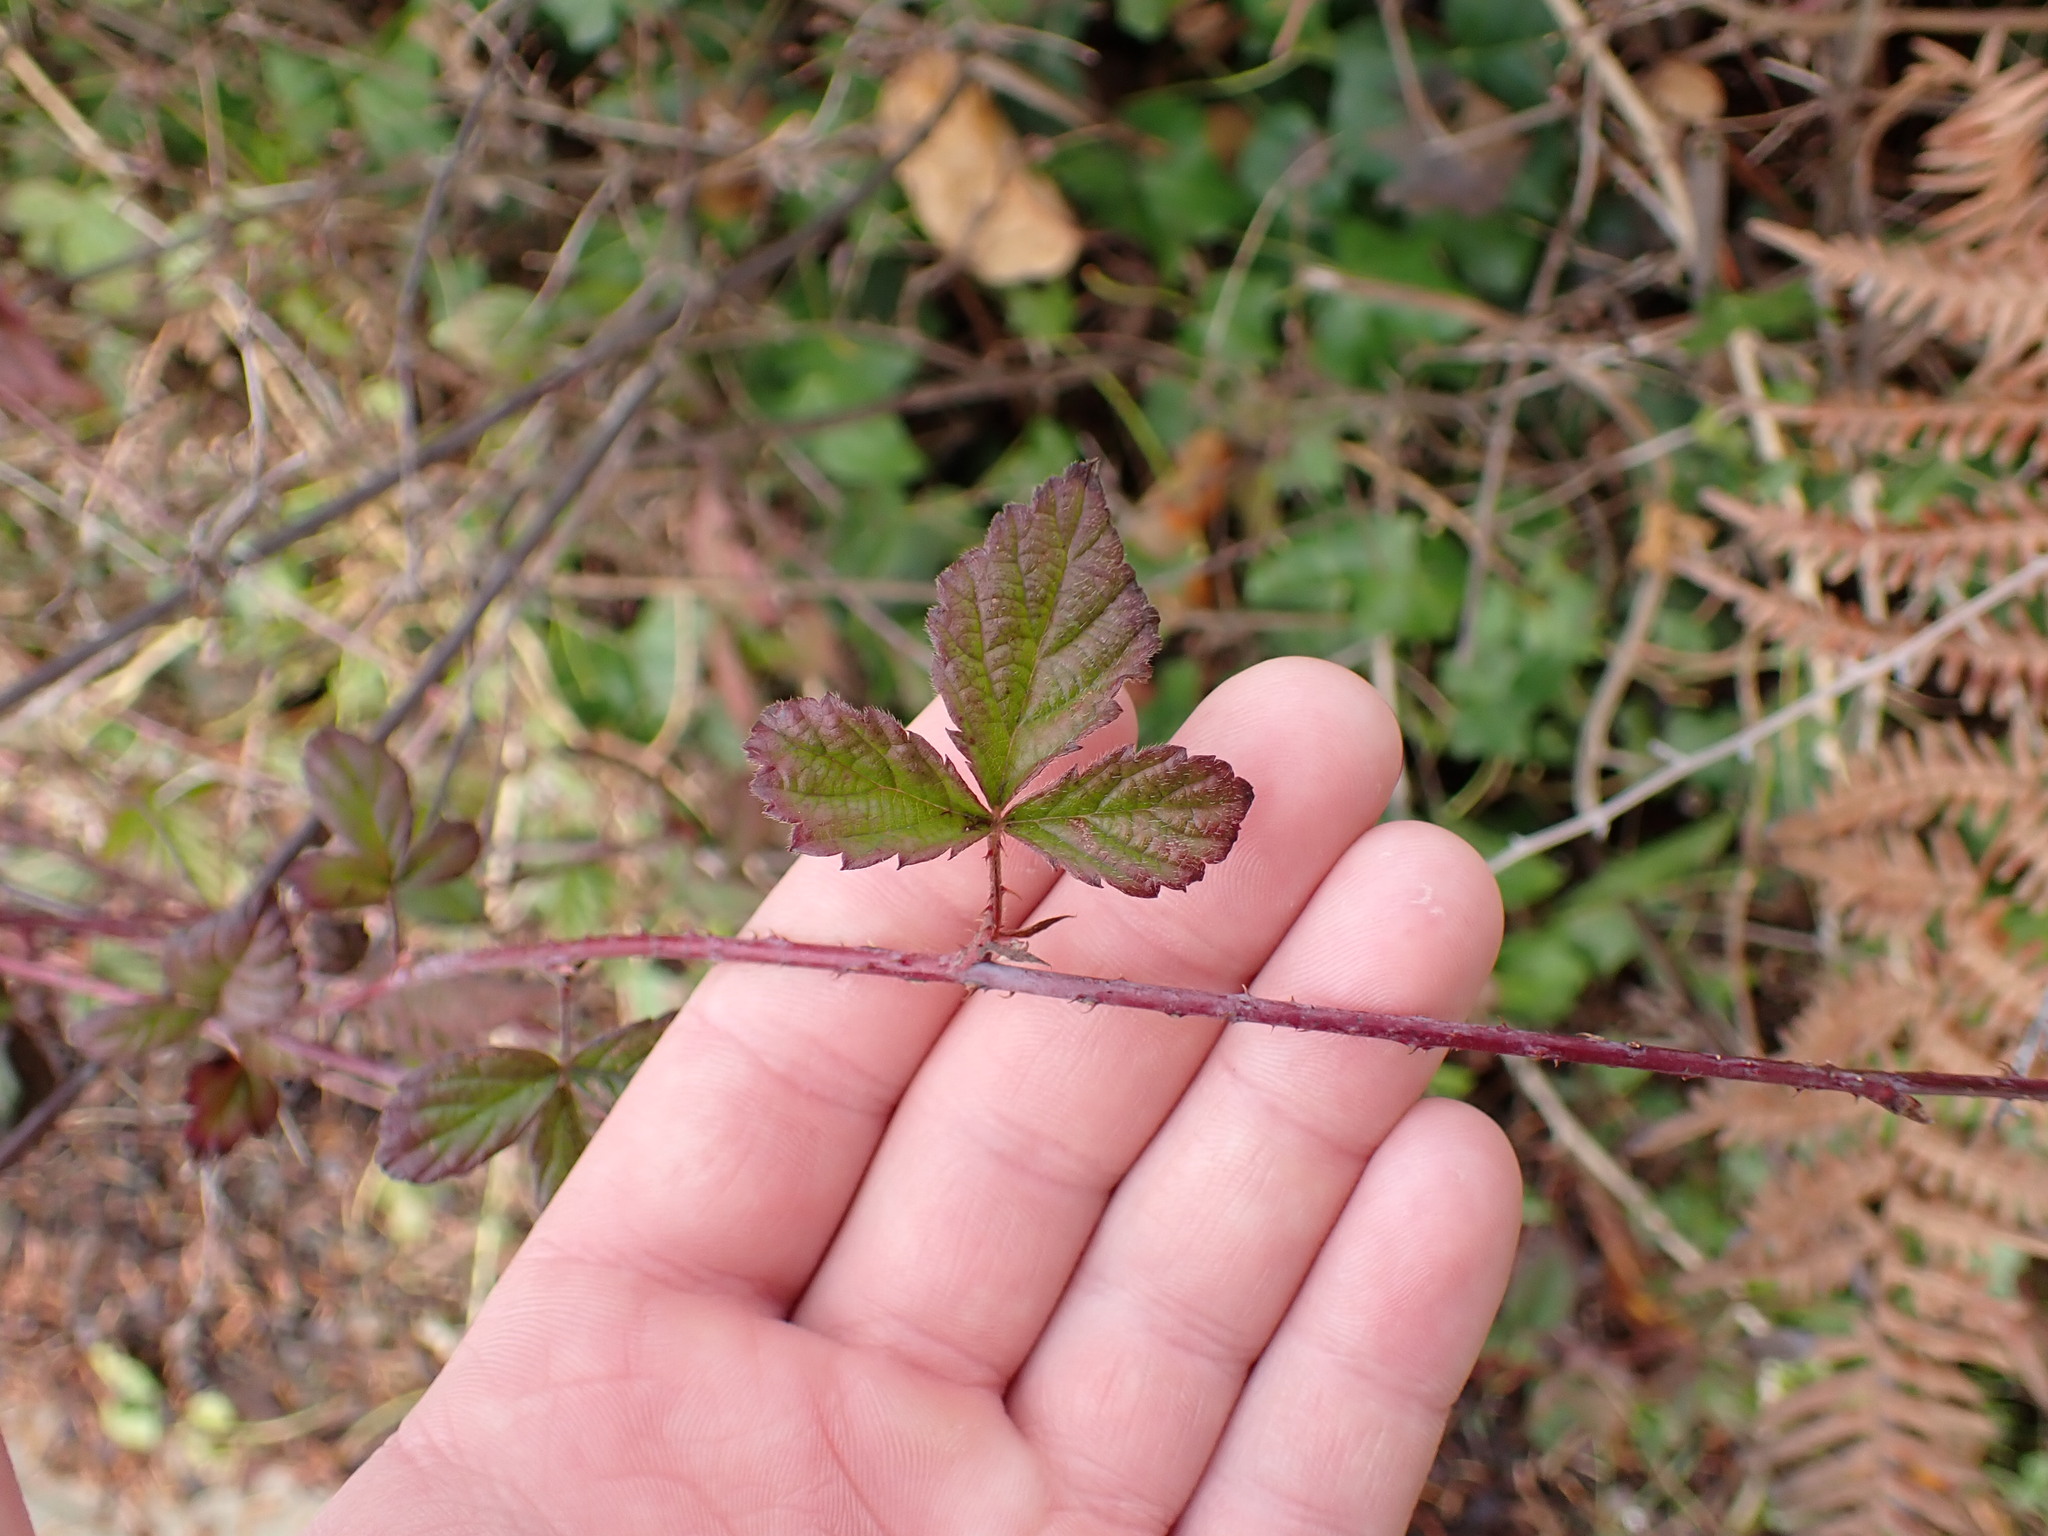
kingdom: Plantae
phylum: Tracheophyta
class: Magnoliopsida
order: Rosales
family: Rosaceae
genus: Rubus
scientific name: Rubus ursinus
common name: Pacific blackberry
